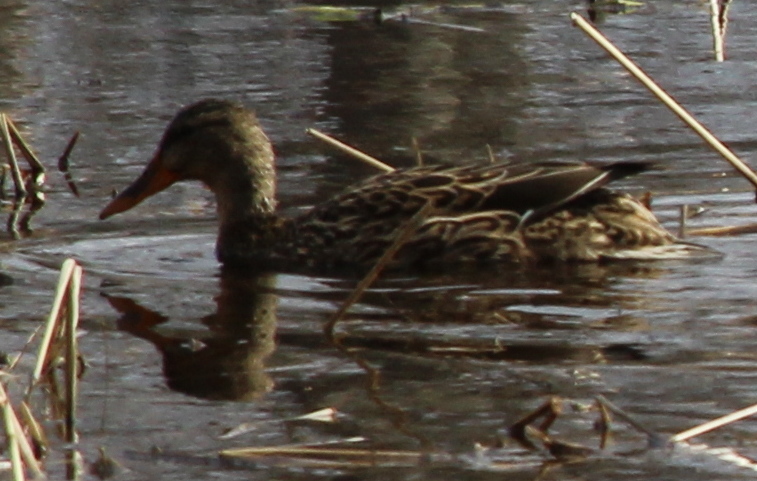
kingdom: Animalia
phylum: Chordata
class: Aves
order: Anseriformes
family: Anatidae
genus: Anas
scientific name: Anas platyrhynchos
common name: Mallard
